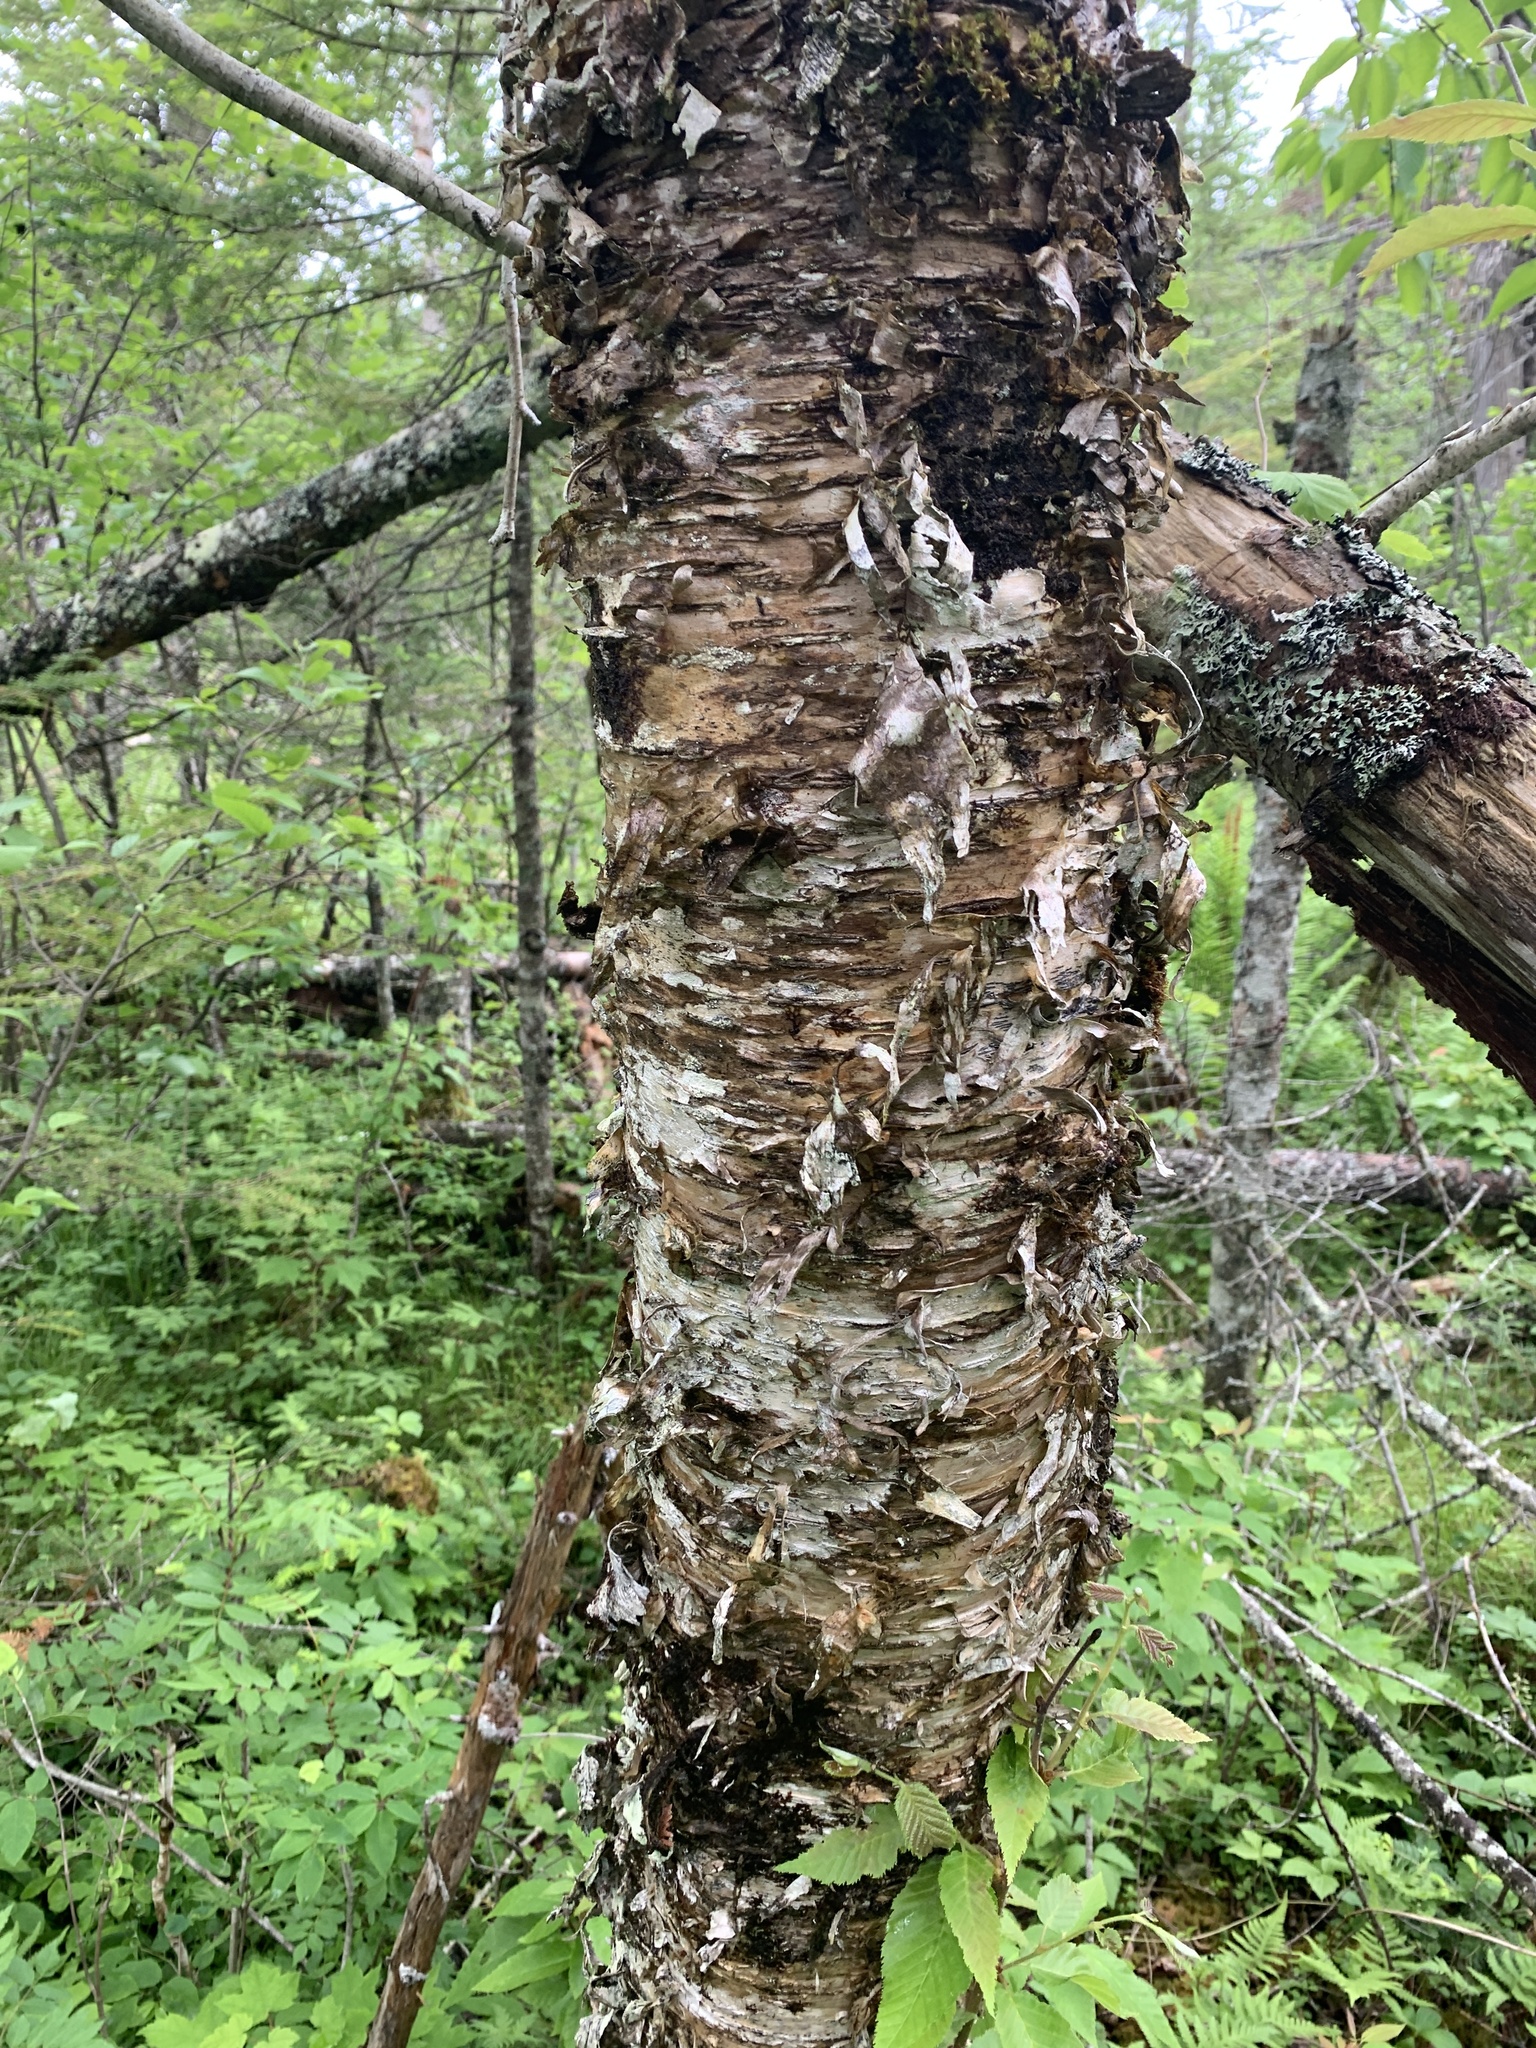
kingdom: Plantae
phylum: Tracheophyta
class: Magnoliopsida
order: Fagales
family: Betulaceae
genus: Betula
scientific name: Betula alleghaniensis
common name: Yellow birch
